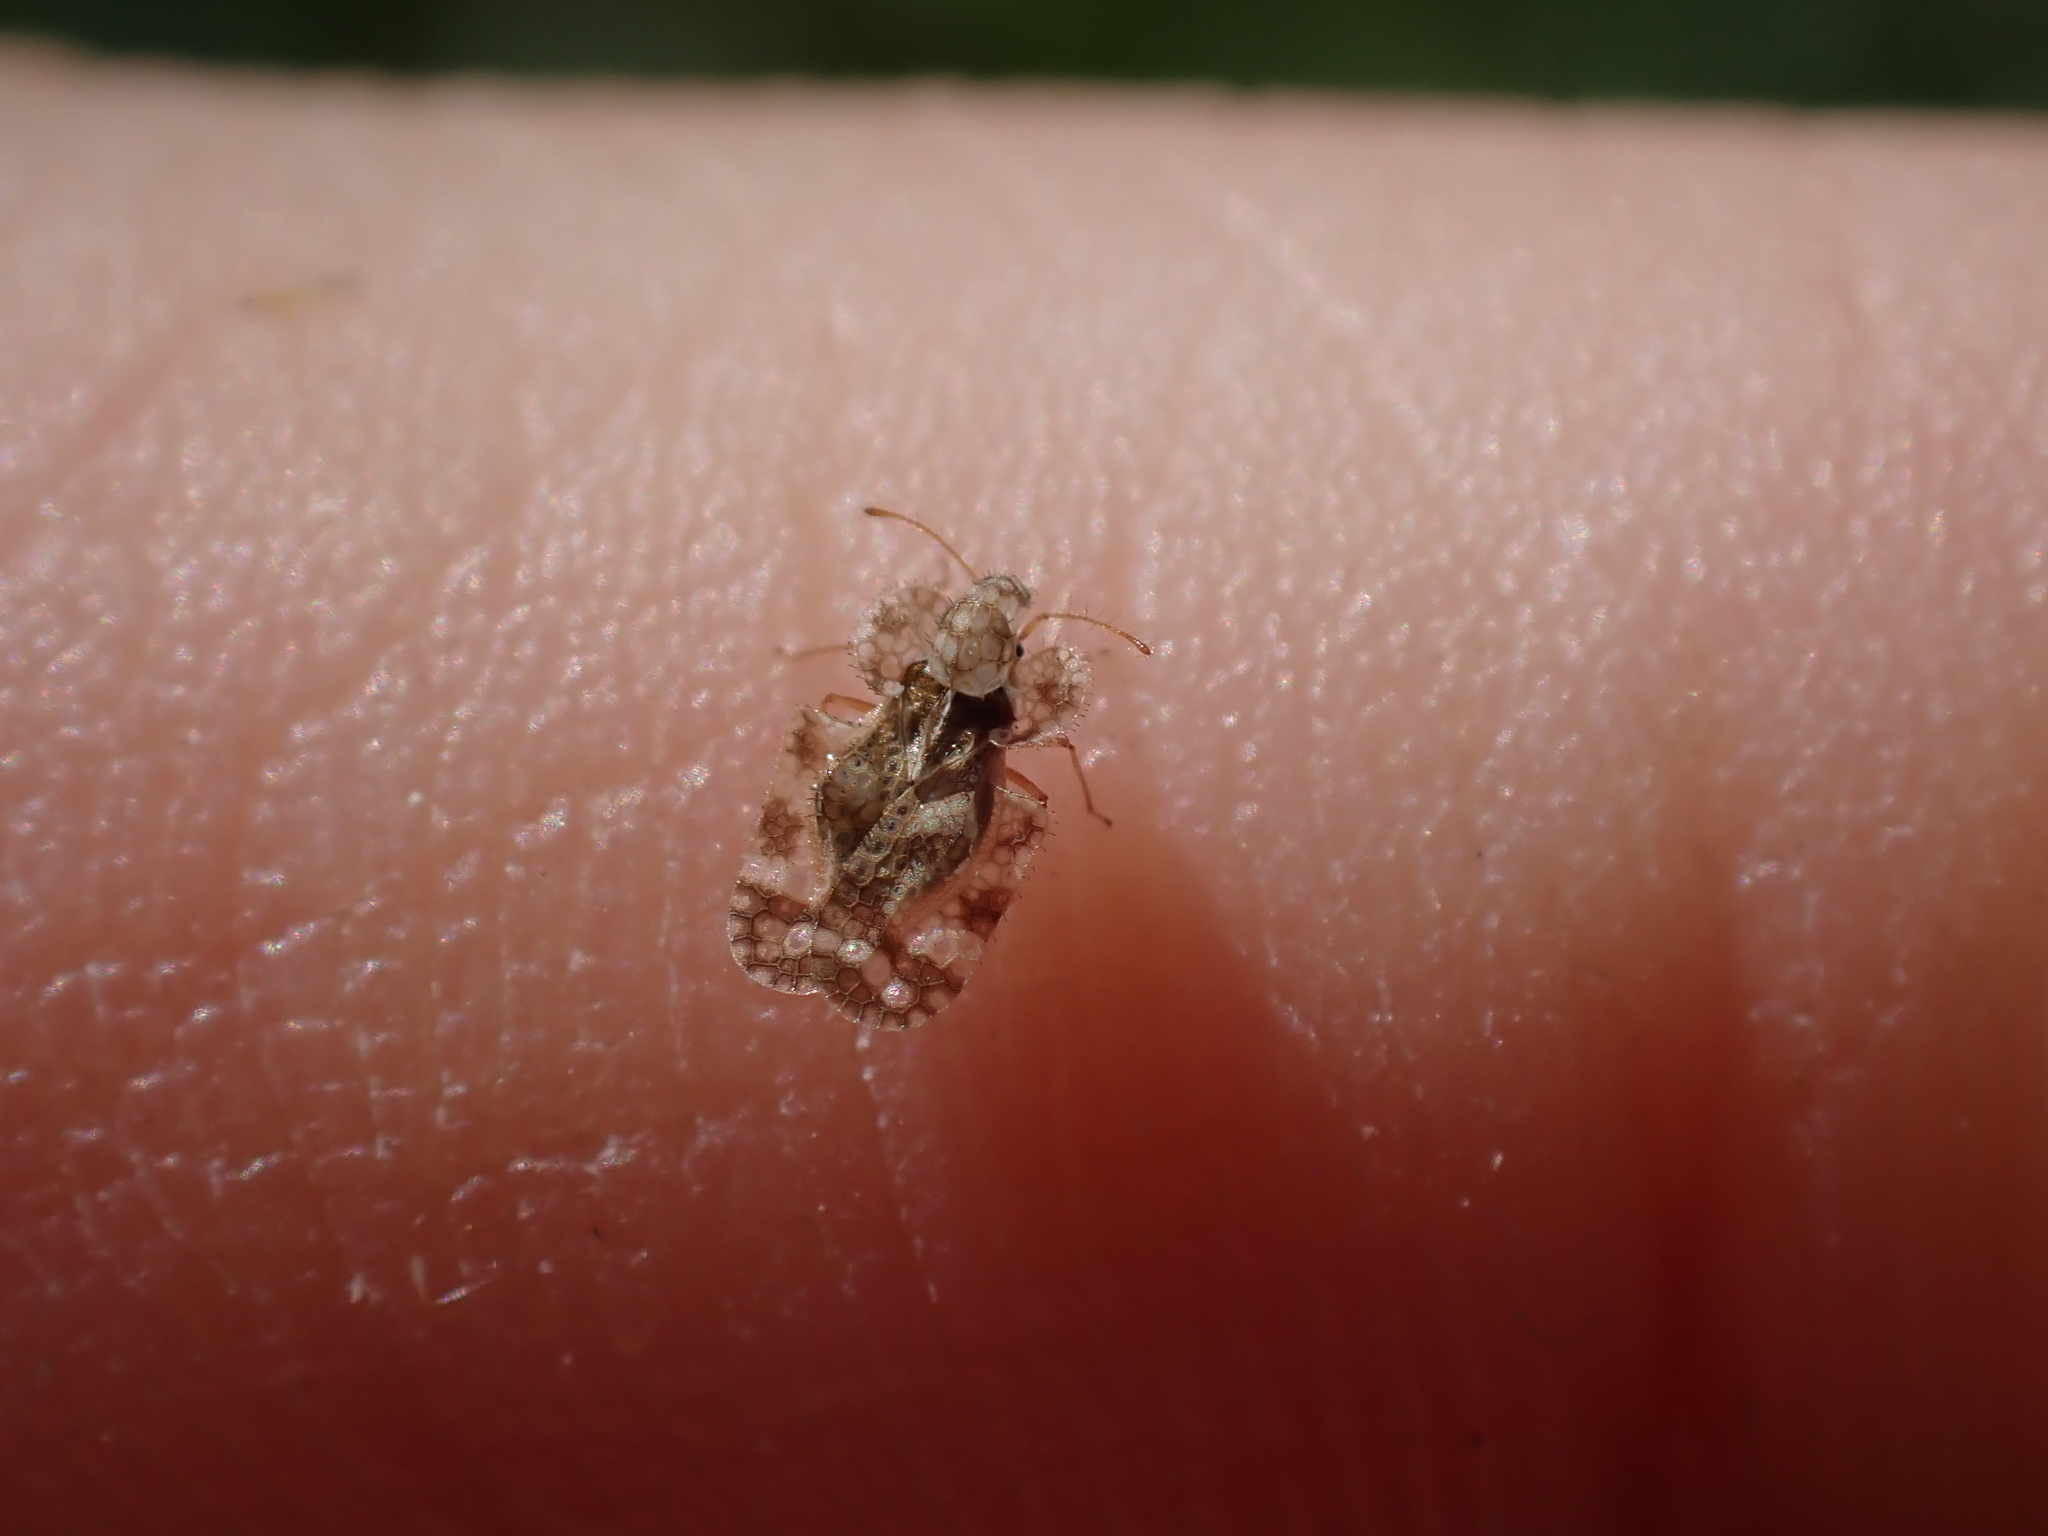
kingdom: Animalia
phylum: Arthropoda
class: Insecta
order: Hemiptera
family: Tingidae
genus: Corythucha
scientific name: Corythucha marmorata
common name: Chrysanthemum lace bug
